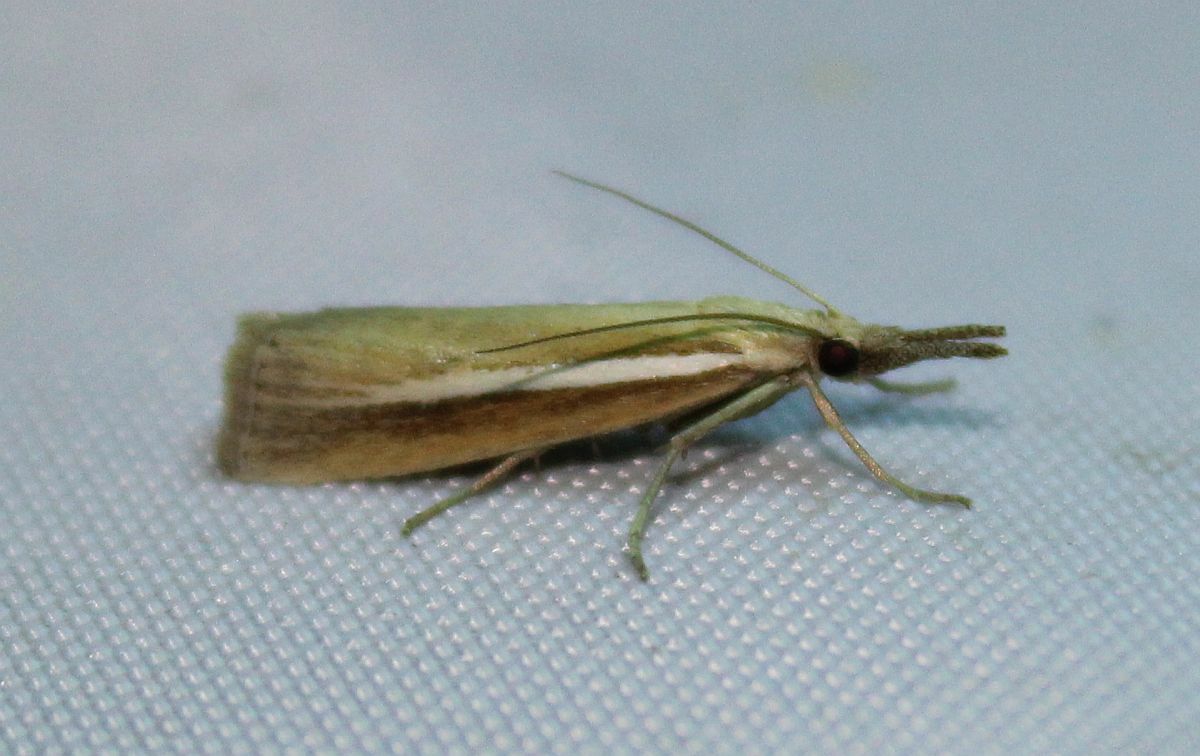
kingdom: Animalia
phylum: Arthropoda
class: Insecta
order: Lepidoptera
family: Crambidae
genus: Agriphila
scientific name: Agriphila selasella
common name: Pale-streak grass-veneer
